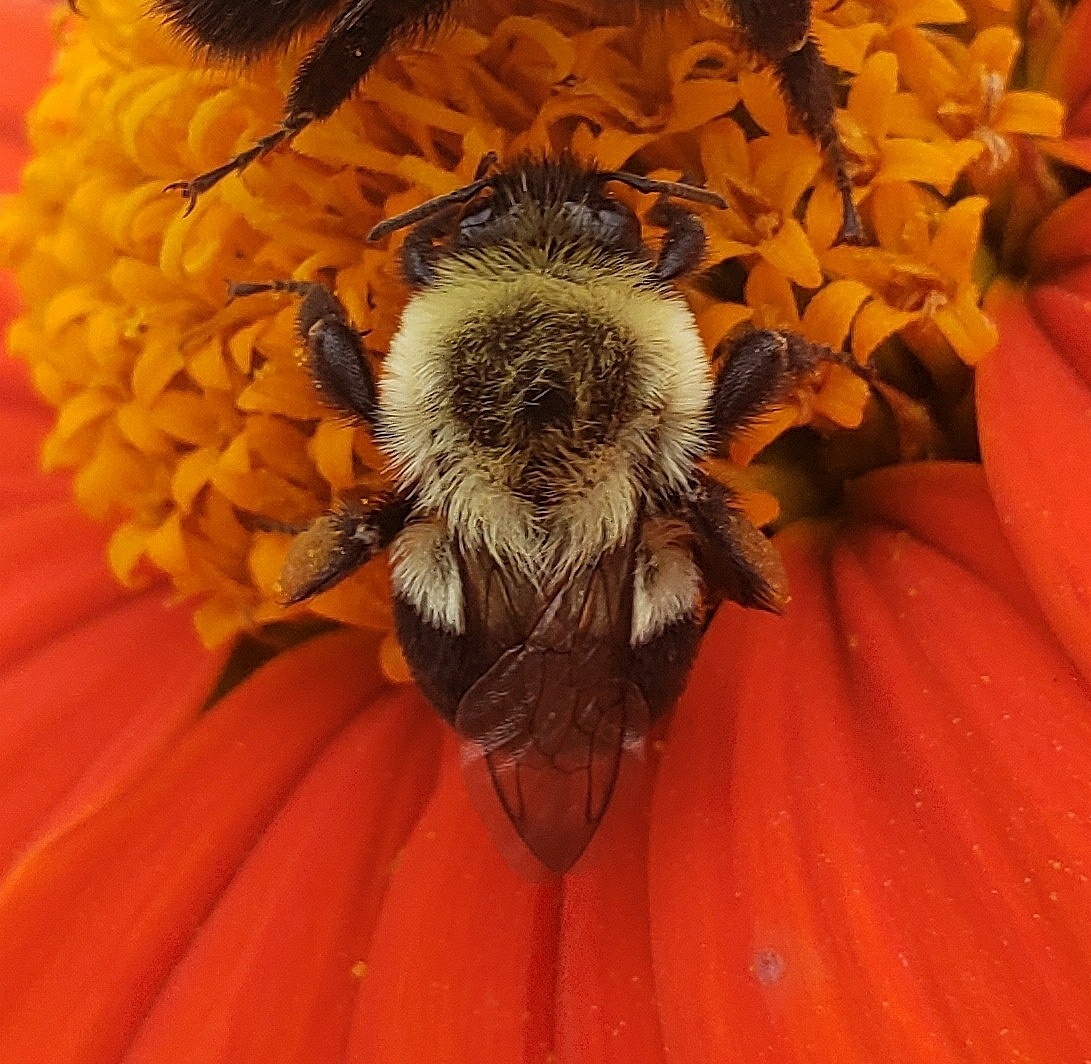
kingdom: Animalia
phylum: Arthropoda
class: Insecta
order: Hymenoptera
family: Apidae
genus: Bombus
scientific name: Bombus impatiens
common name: Common eastern bumble bee
